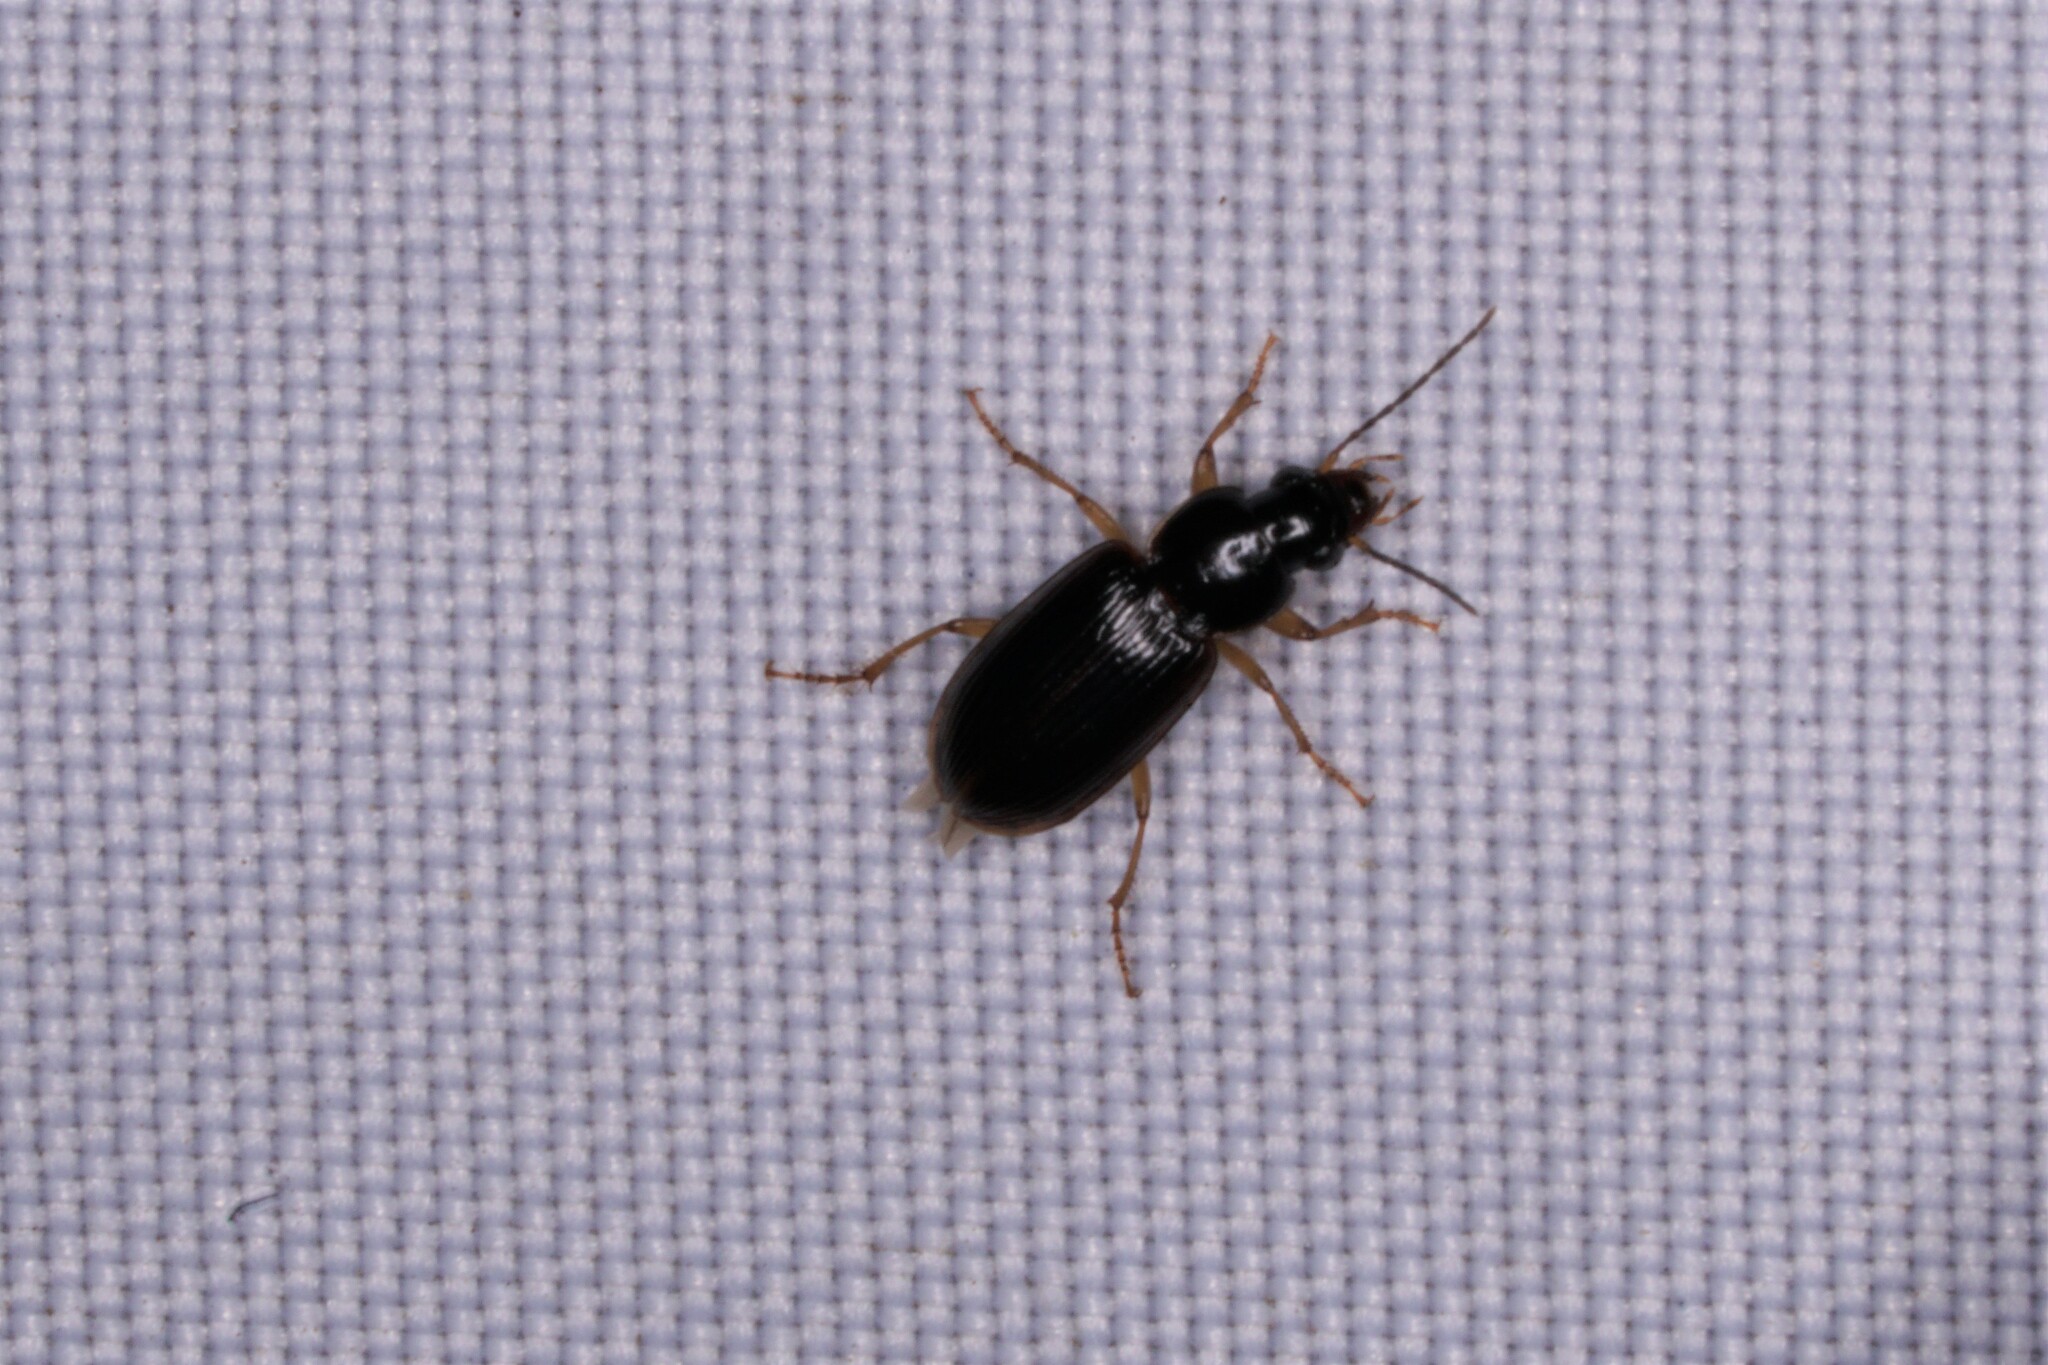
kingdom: Animalia
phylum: Arthropoda
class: Insecta
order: Coleoptera
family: Carabidae
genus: Stenolophus
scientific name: Stenolophus ochropezus
